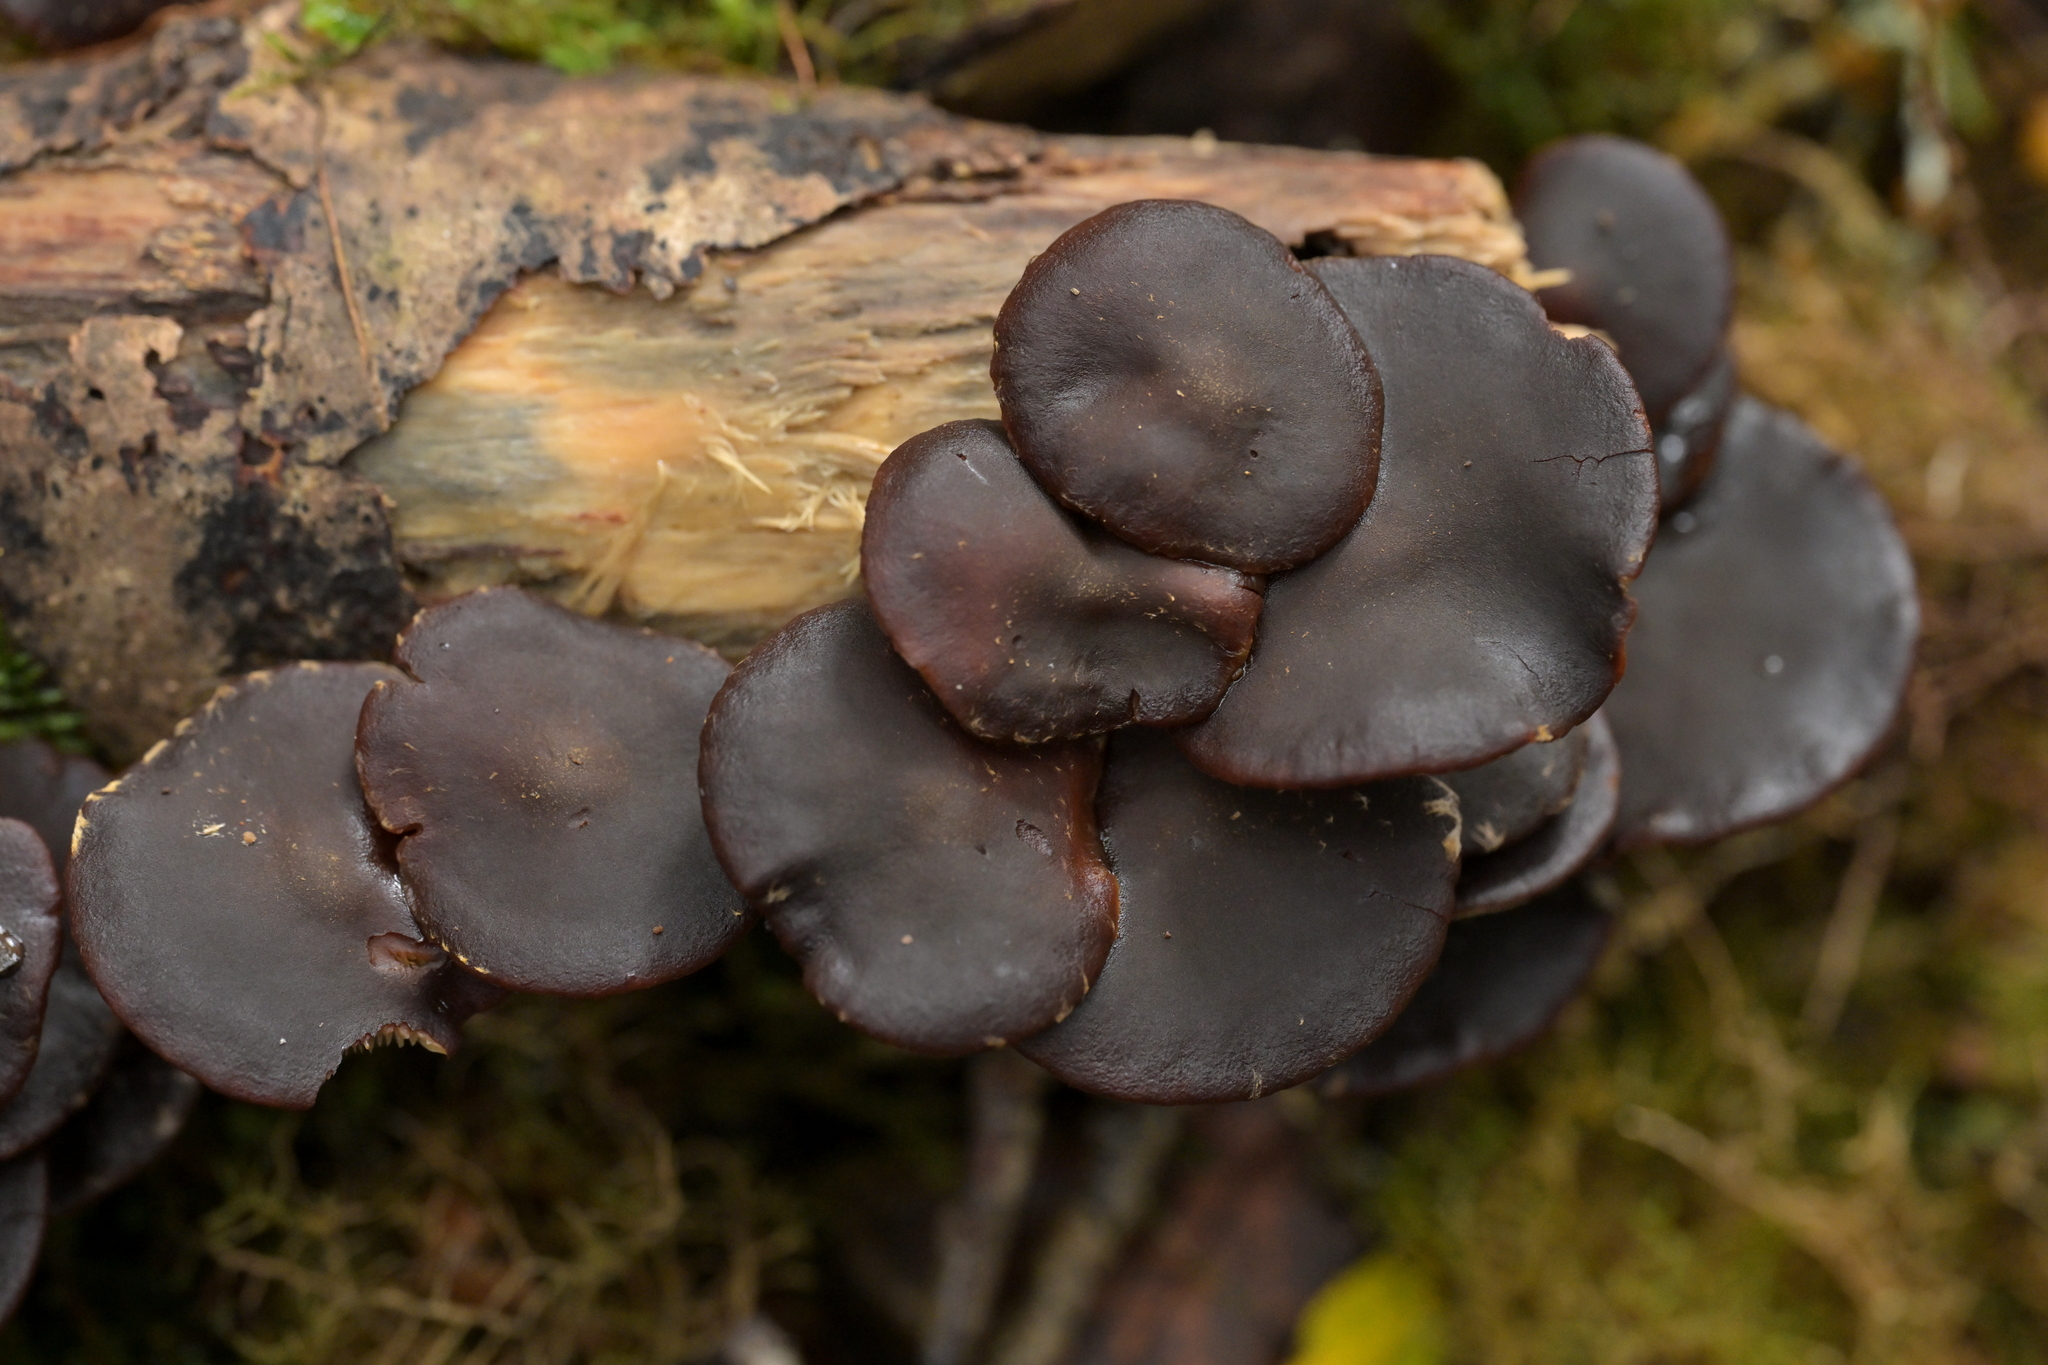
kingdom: Fungi
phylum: Basidiomycota
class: Agaricomycetes
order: Agaricales
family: Strophariaceae
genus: Hypholoma
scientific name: Hypholoma brunneum
